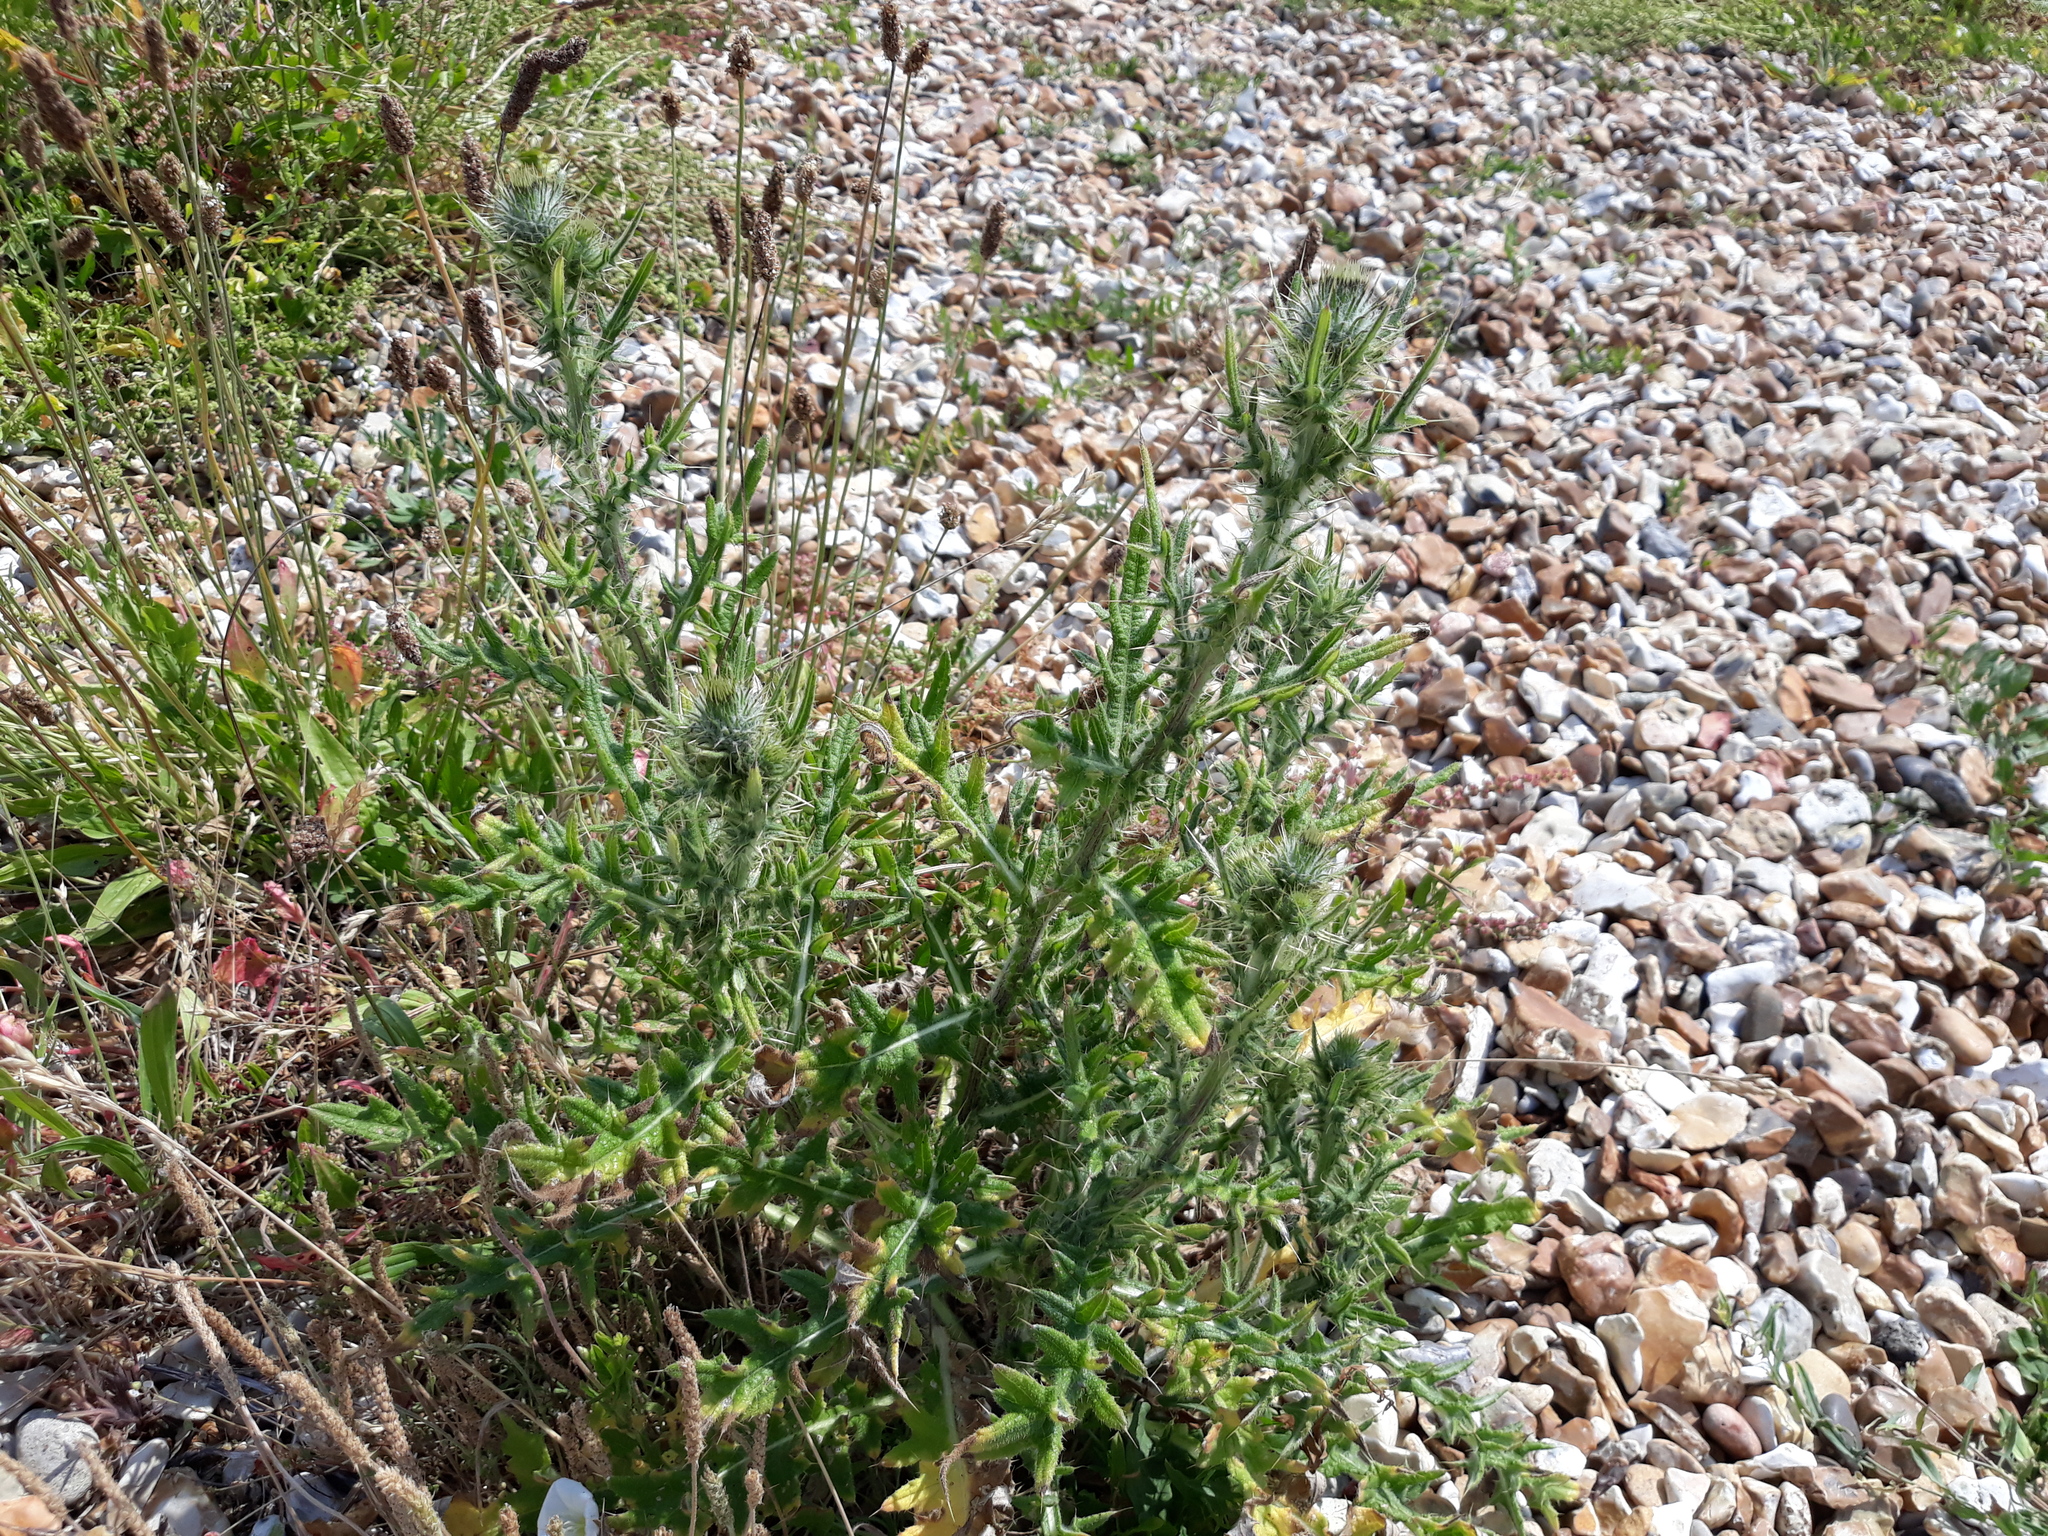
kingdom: Plantae
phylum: Tracheophyta
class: Magnoliopsida
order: Asterales
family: Asteraceae
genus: Cirsium
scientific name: Cirsium vulgare
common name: Bull thistle
